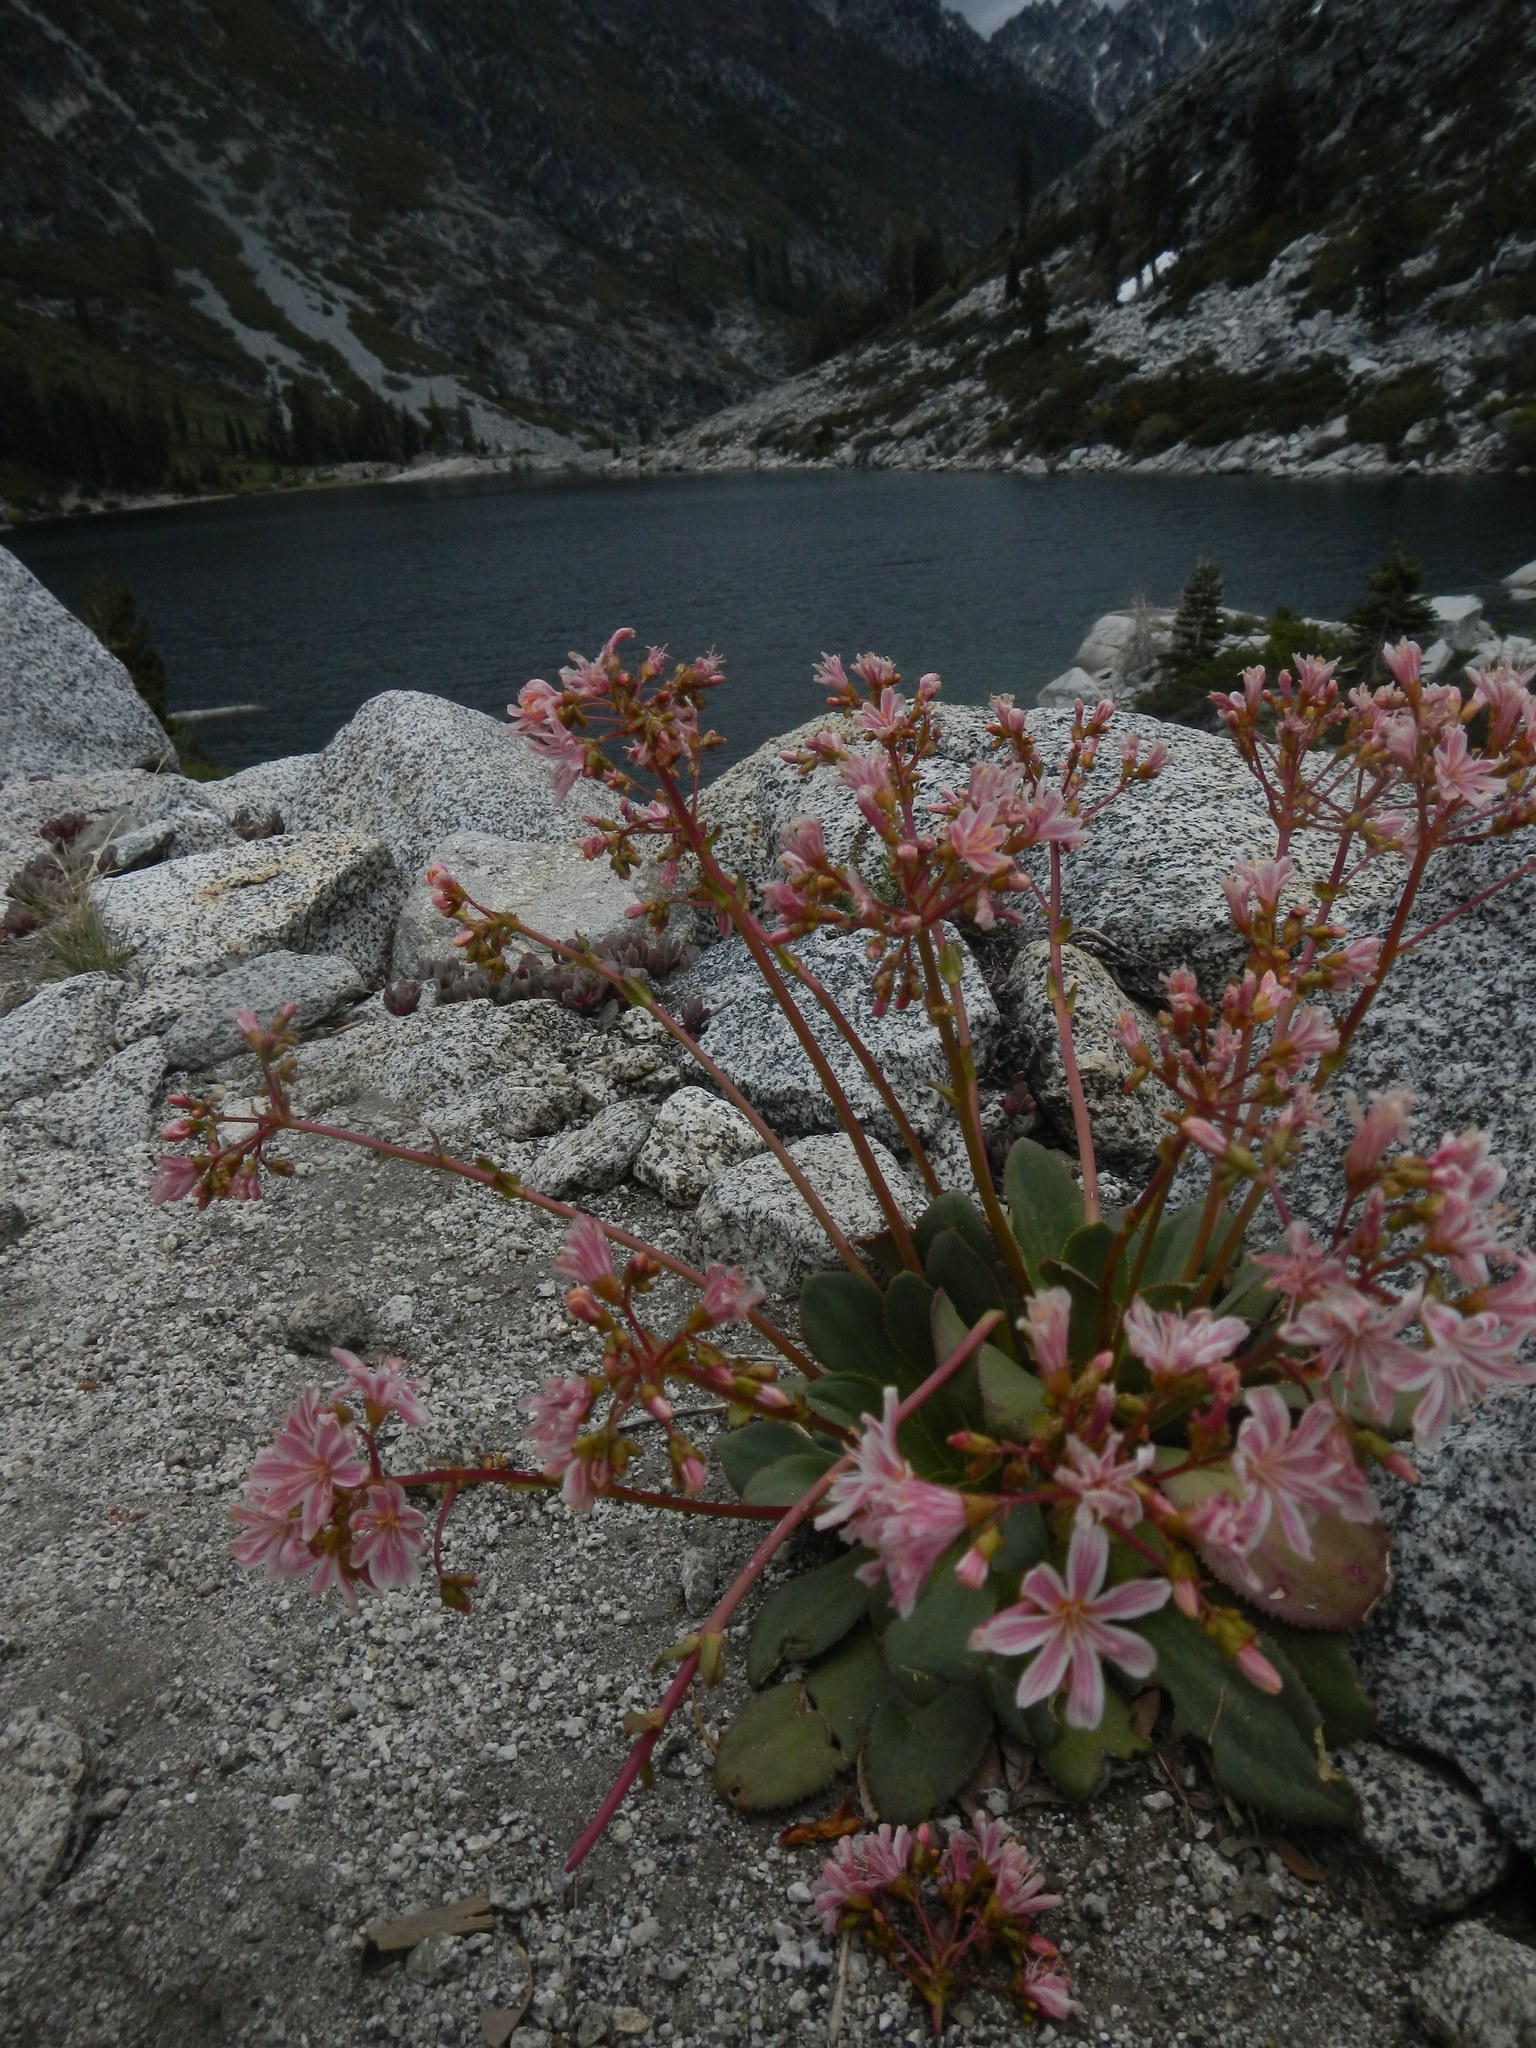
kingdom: Plantae
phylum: Tracheophyta
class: Magnoliopsida
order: Caryophyllales
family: Montiaceae
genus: Lewisia
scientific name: Lewisia cotyledon
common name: Siskiyou lewisia
